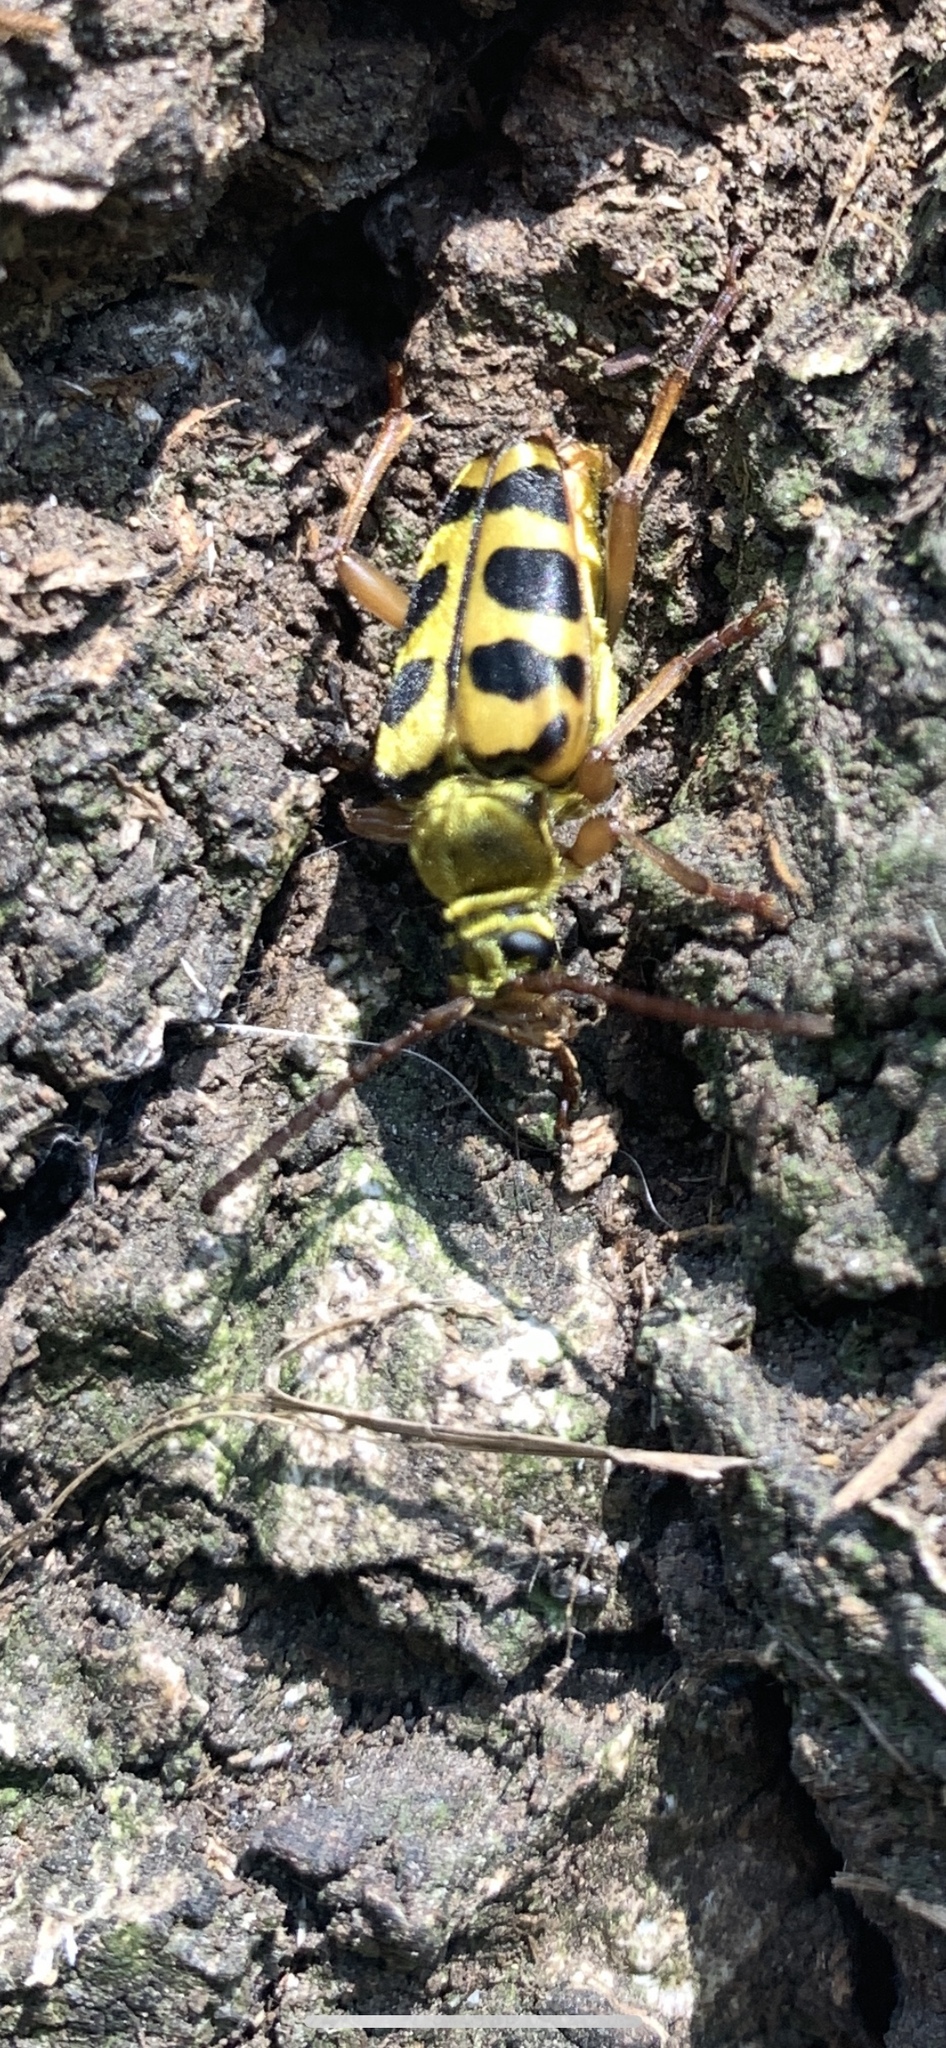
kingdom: Animalia
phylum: Arthropoda
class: Insecta
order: Coleoptera
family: Cerambycidae
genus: Strophiona
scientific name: Strophiona laeta
